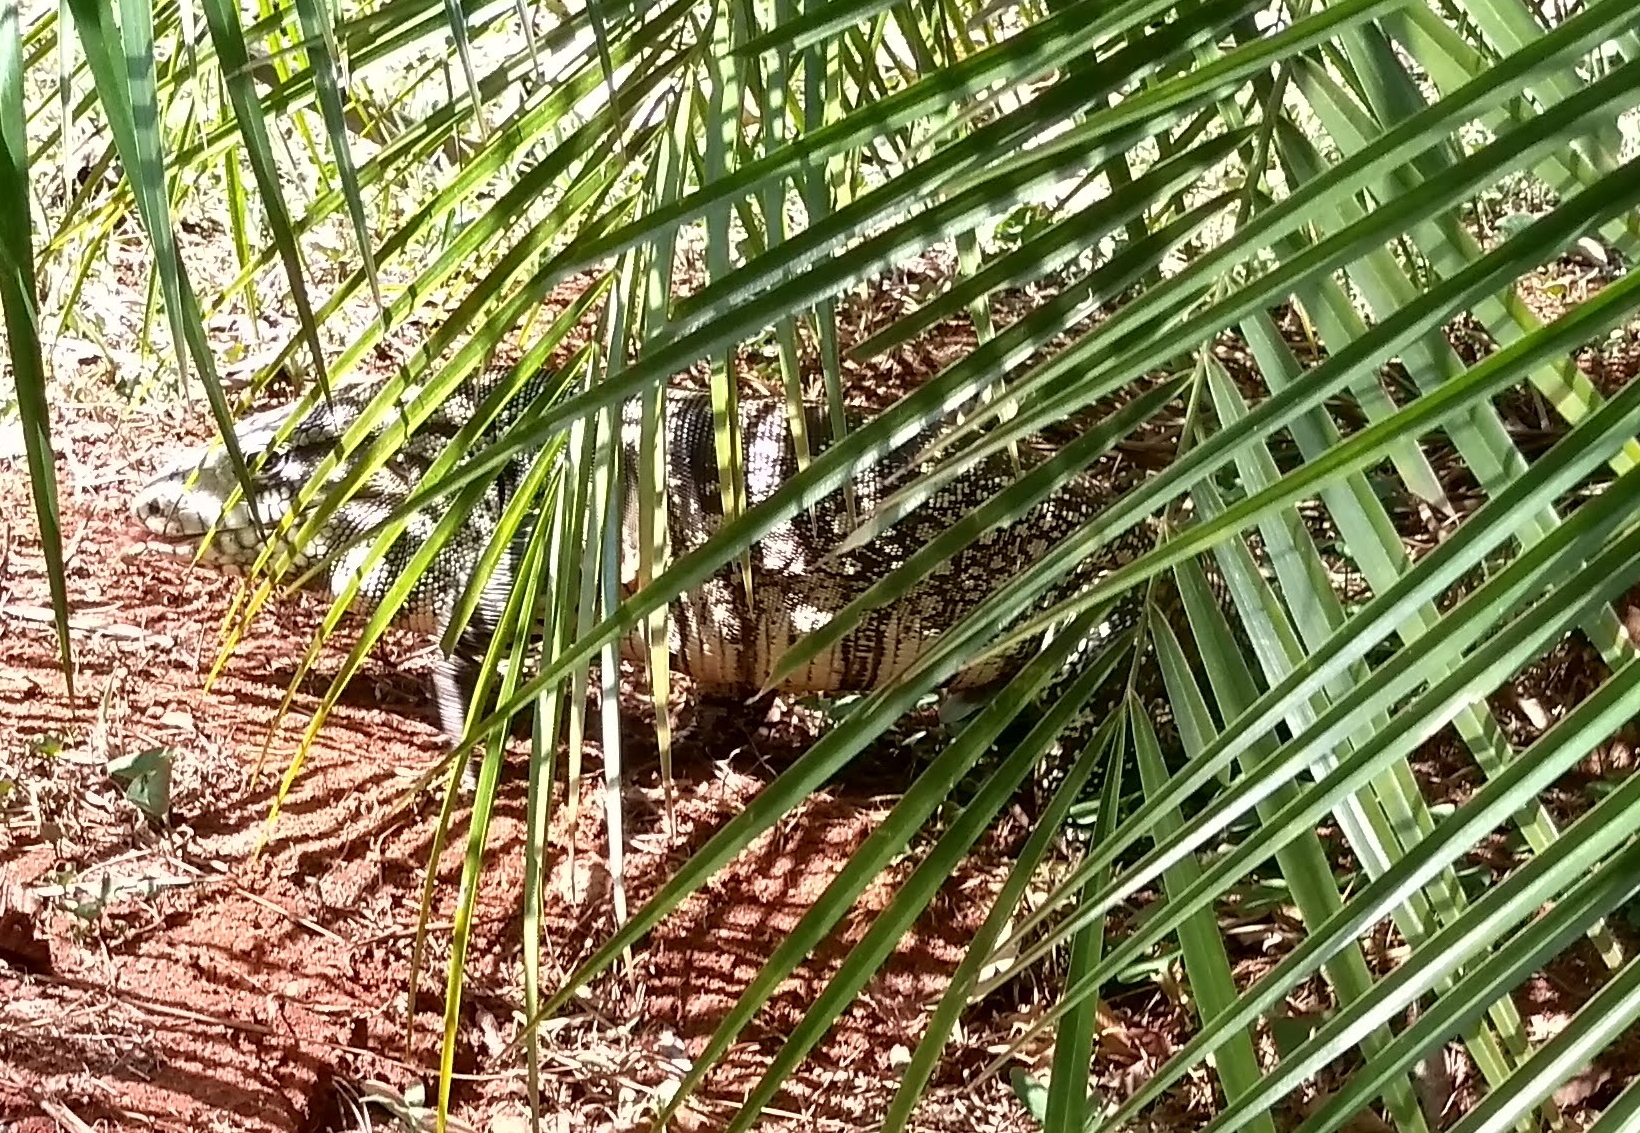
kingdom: Animalia
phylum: Chordata
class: Squamata
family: Teiidae
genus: Salvator
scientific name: Salvator merianae
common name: Argentine black and white tegu
